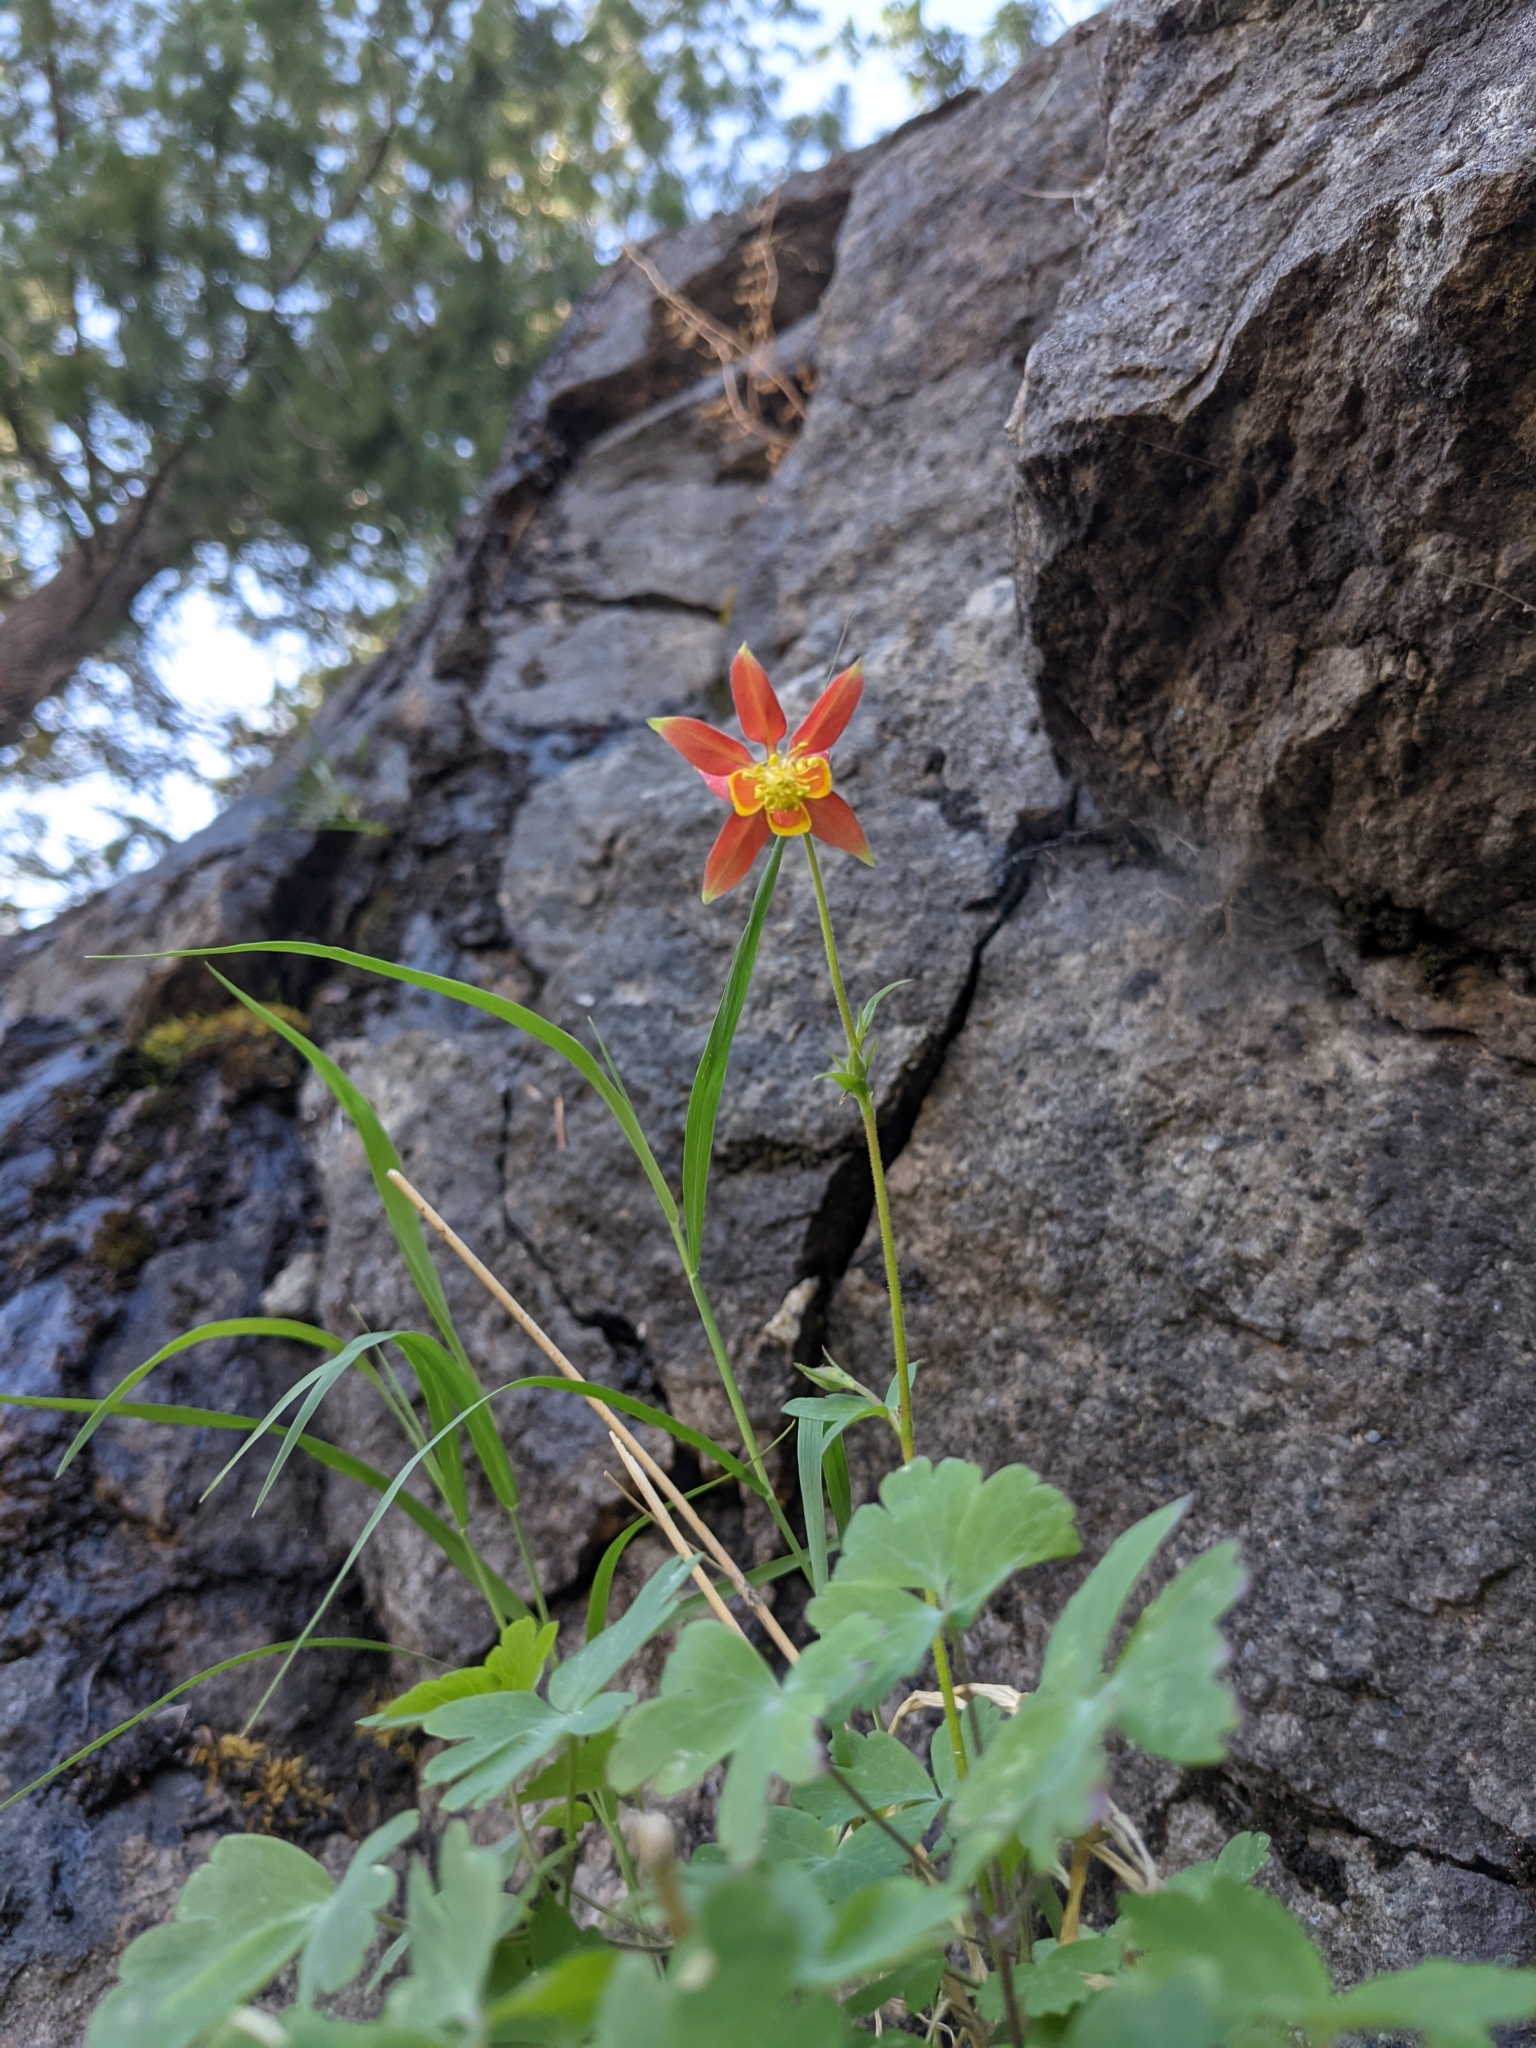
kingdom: Plantae
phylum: Tracheophyta
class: Magnoliopsida
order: Ranunculales
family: Ranunculaceae
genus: Aquilegia
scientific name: Aquilegia formosa
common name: Sitka columbine
